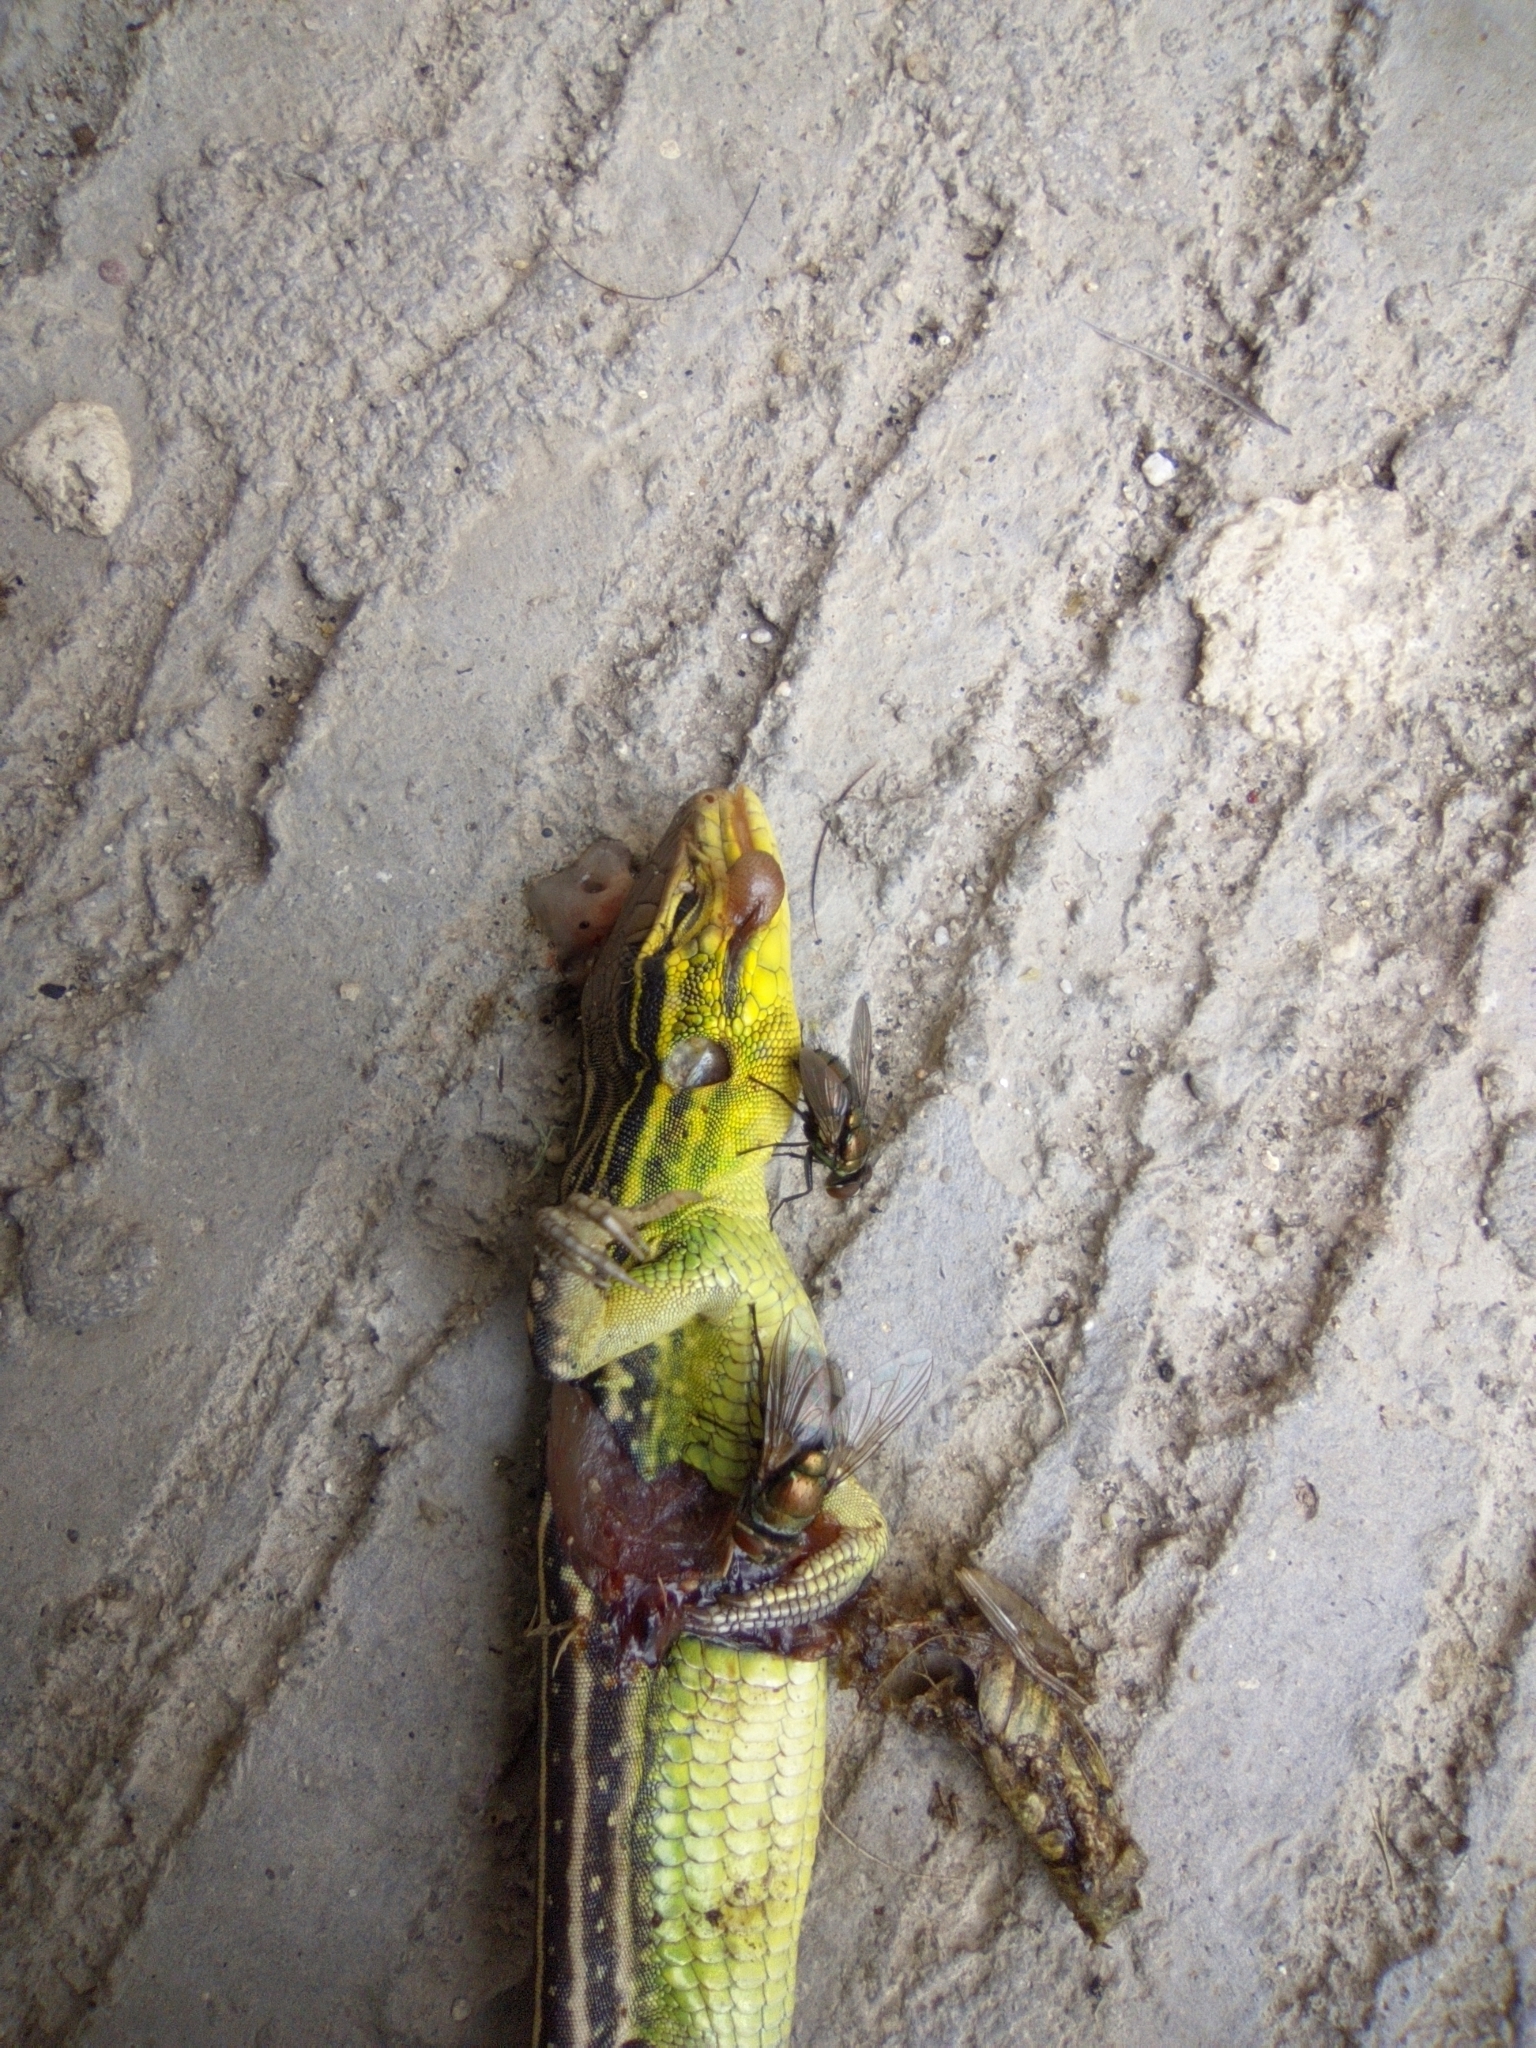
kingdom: Animalia
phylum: Chordata
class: Squamata
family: Teiidae
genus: Cnemidophorus
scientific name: Cnemidophorus gaigei
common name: Gaige’s rainbow lizard
